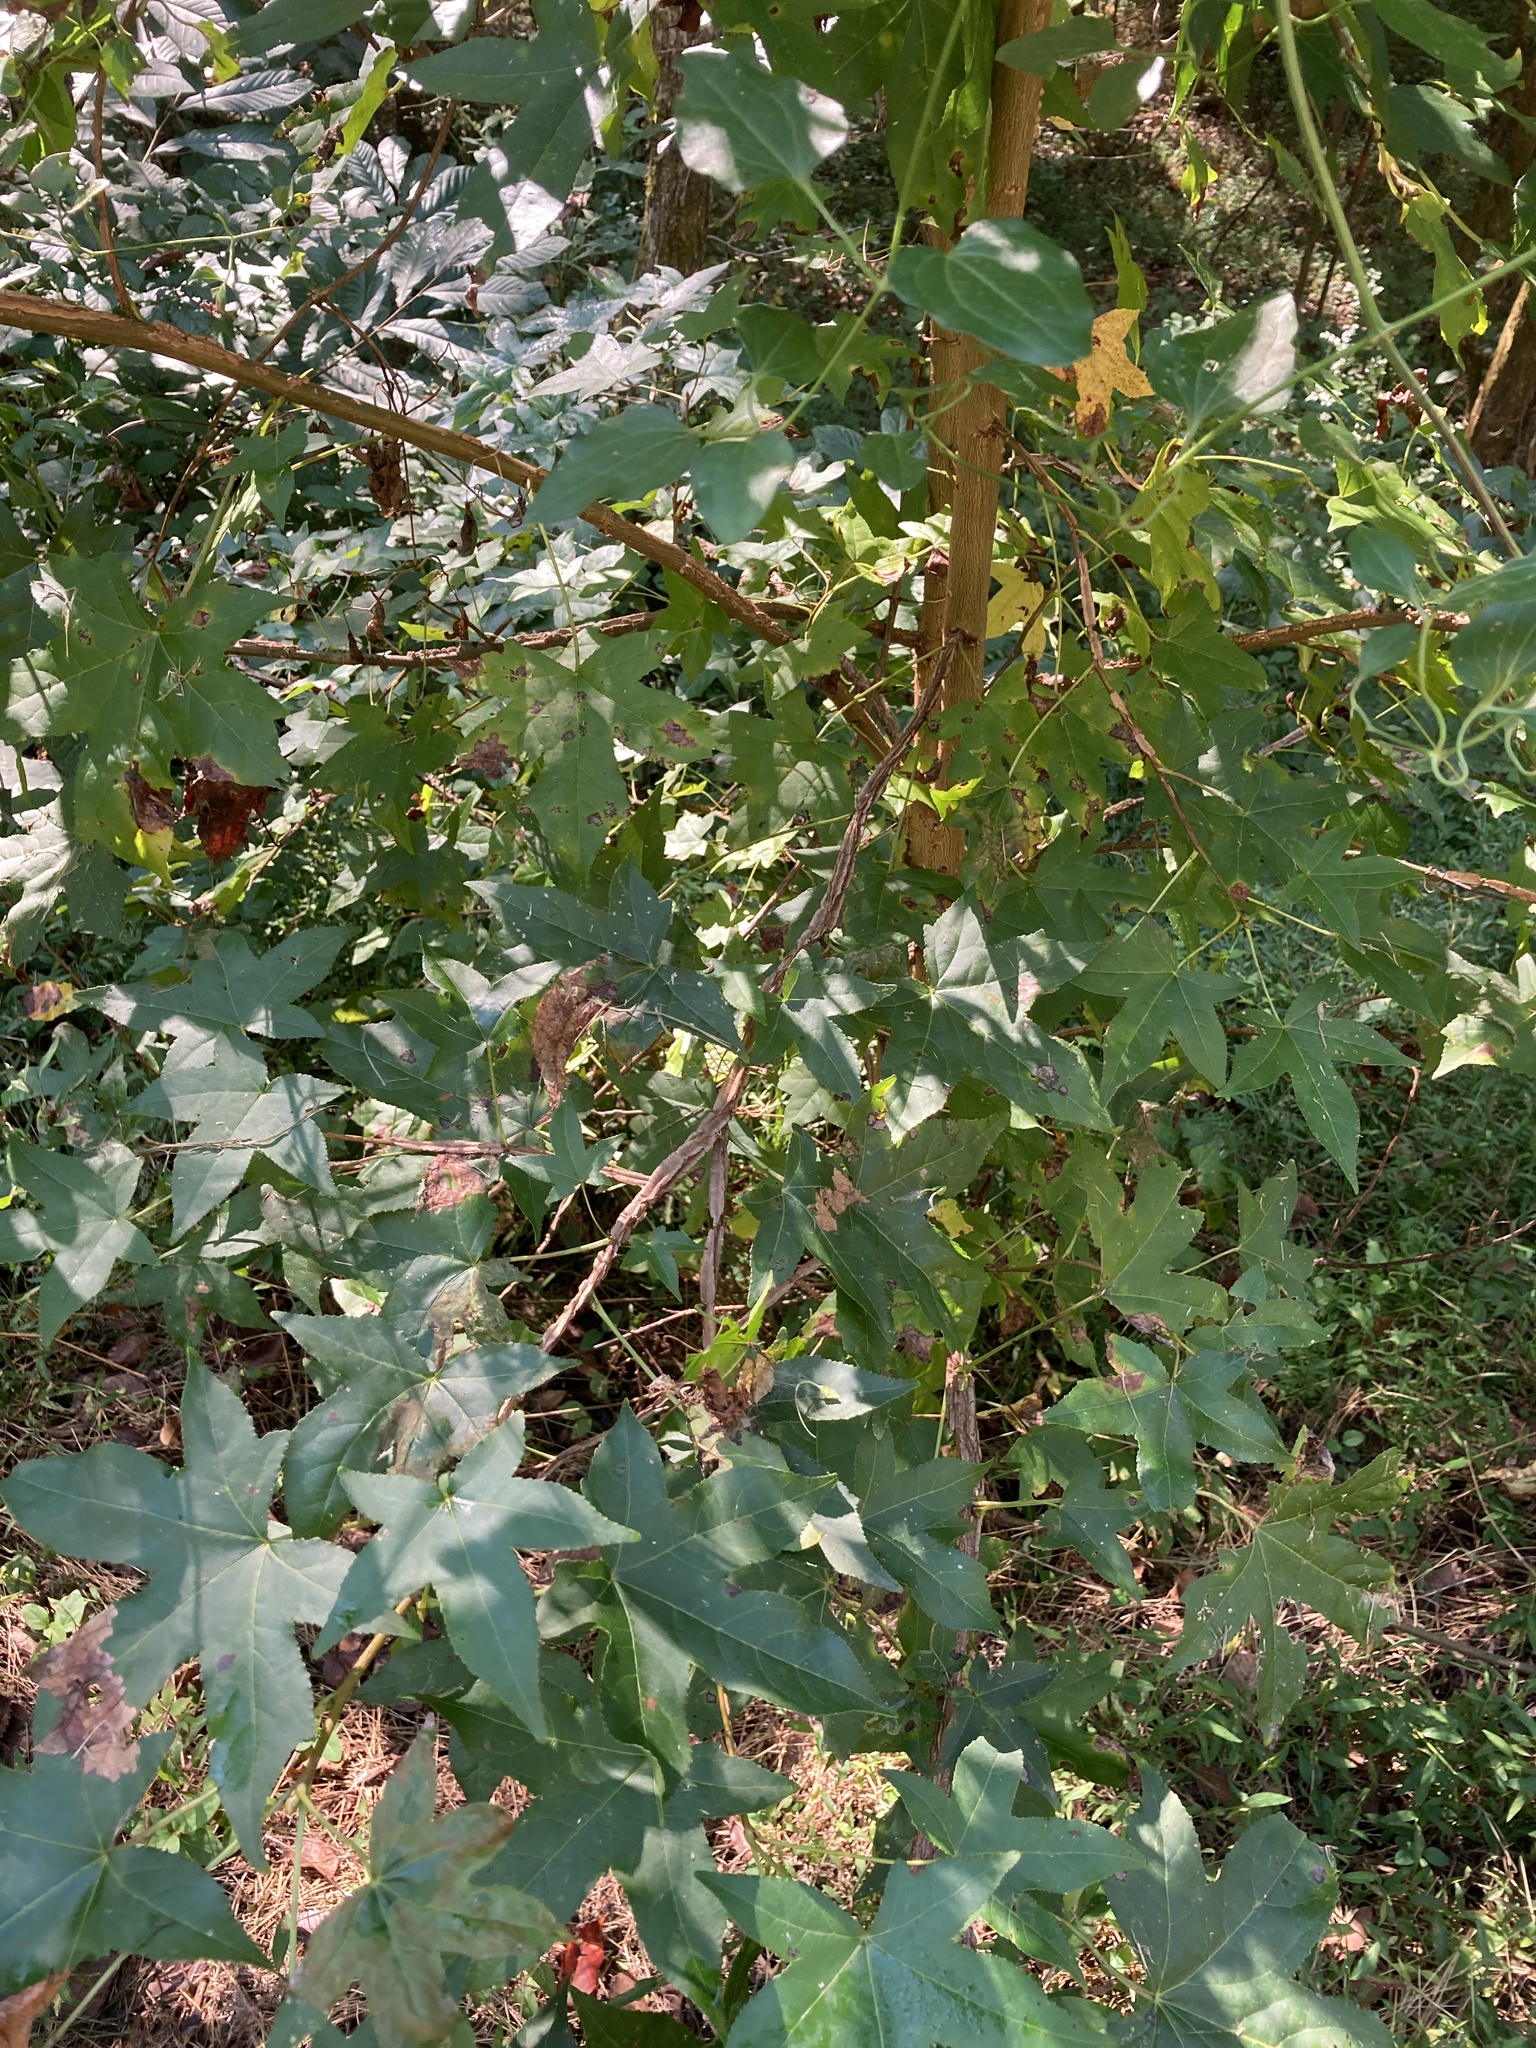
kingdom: Plantae
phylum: Tracheophyta
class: Magnoliopsida
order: Saxifragales
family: Altingiaceae
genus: Liquidambar
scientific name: Liquidambar styraciflua
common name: Sweet gum
